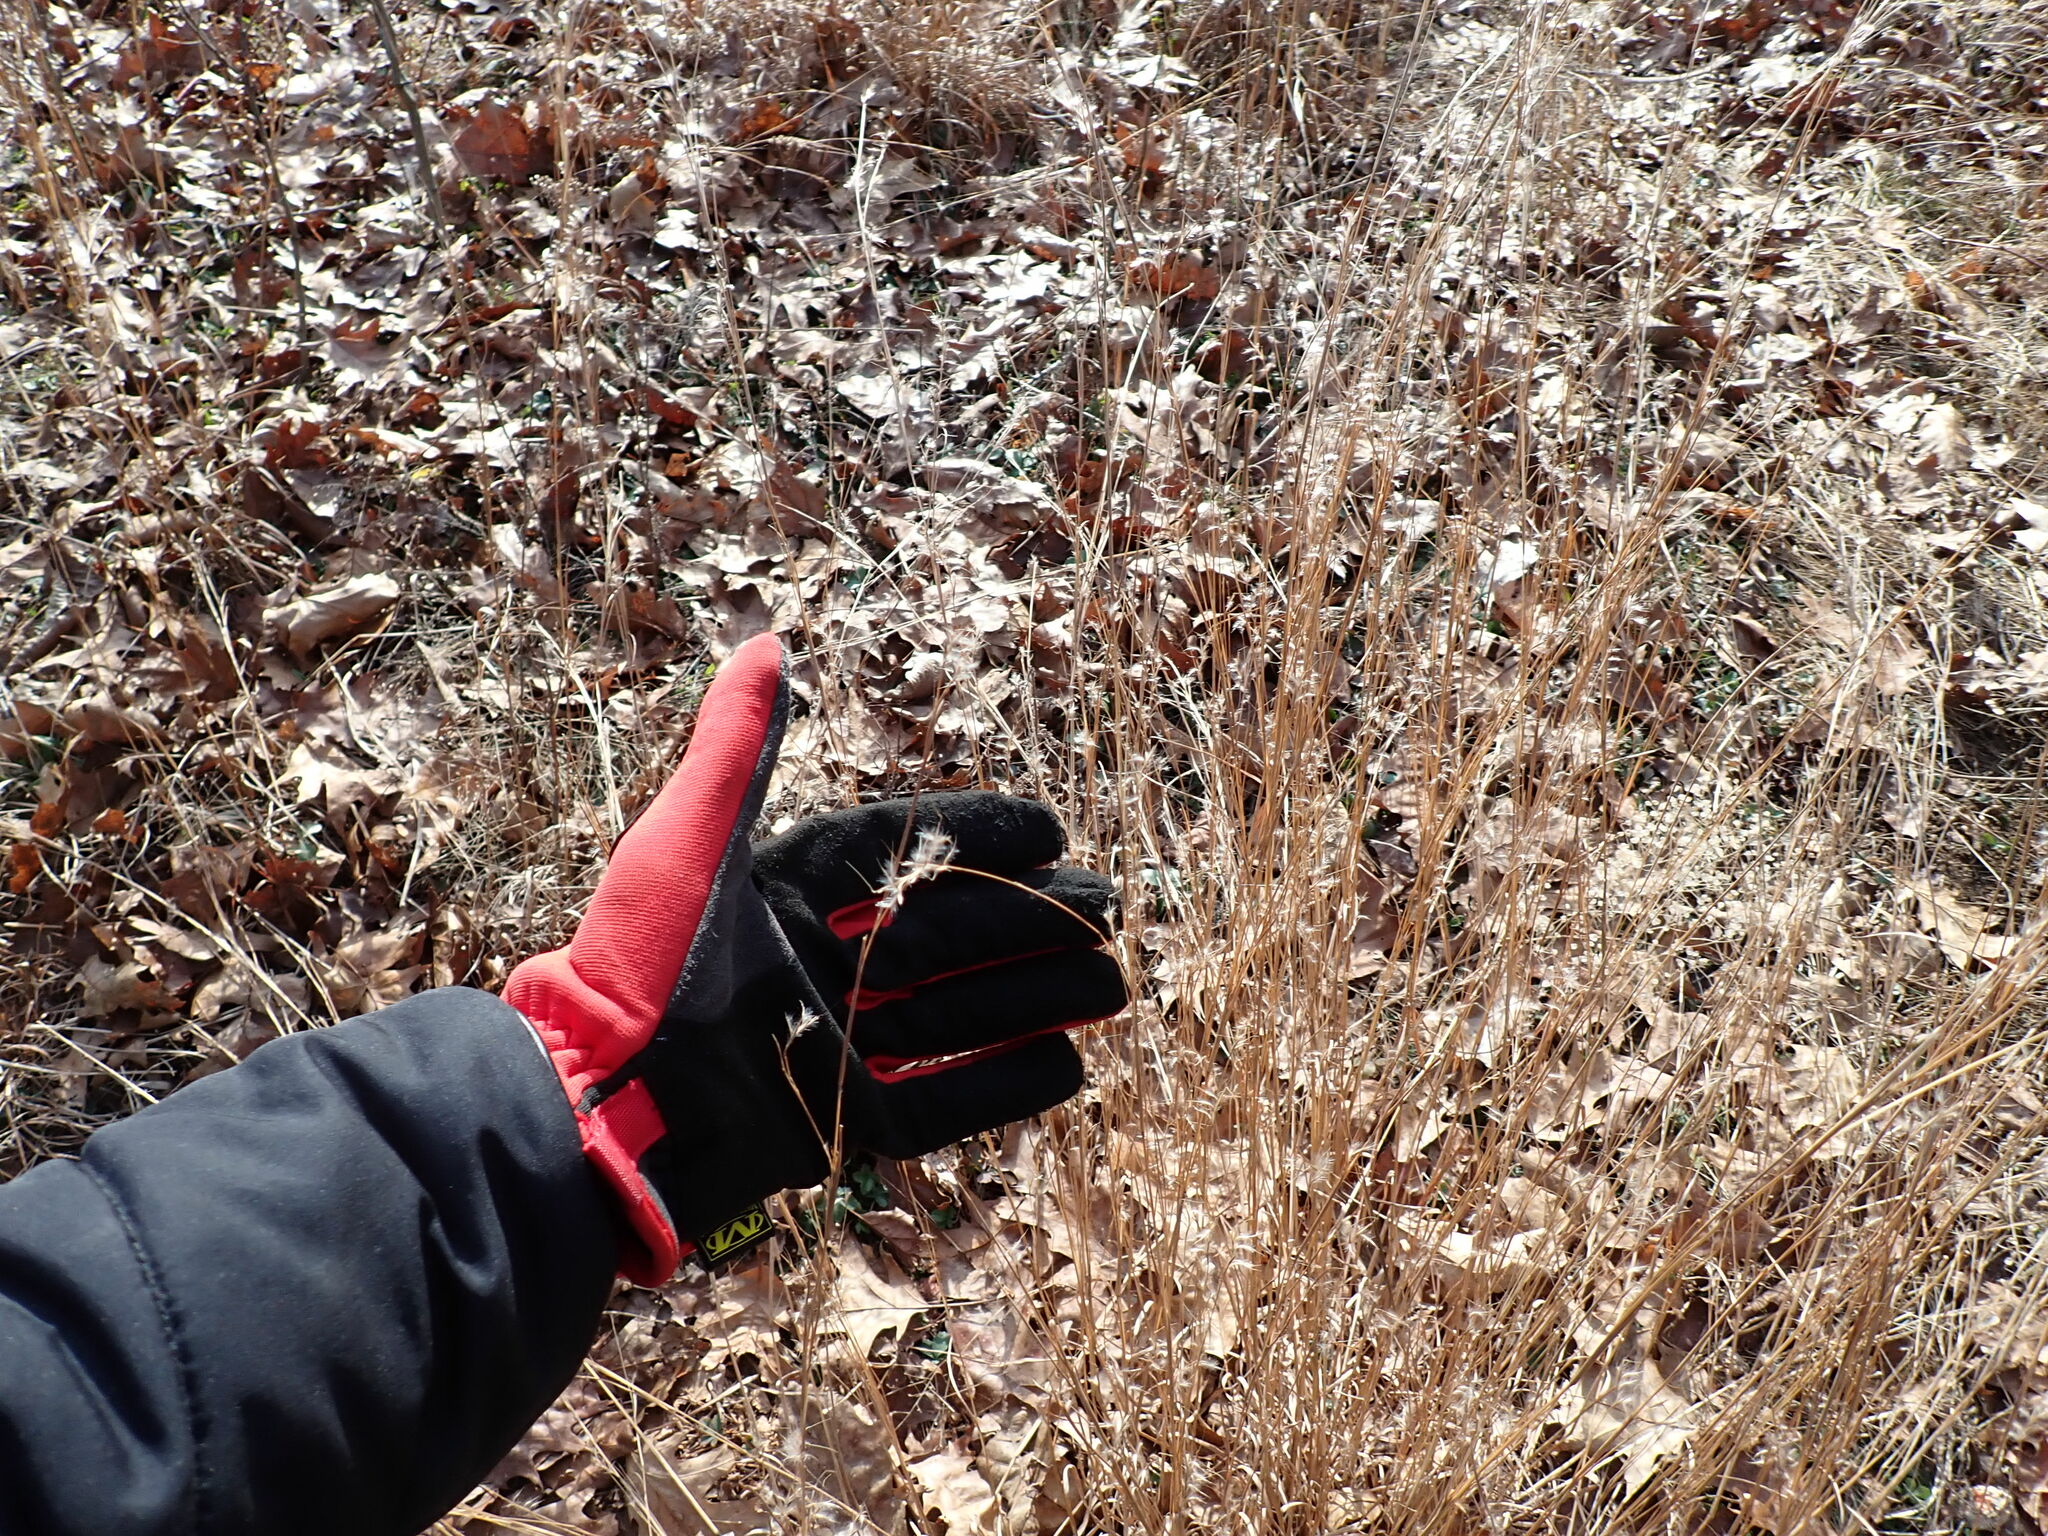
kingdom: Plantae
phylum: Tracheophyta
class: Liliopsida
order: Poales
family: Poaceae
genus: Schizachyrium
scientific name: Schizachyrium scoparium
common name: Little bluestem
